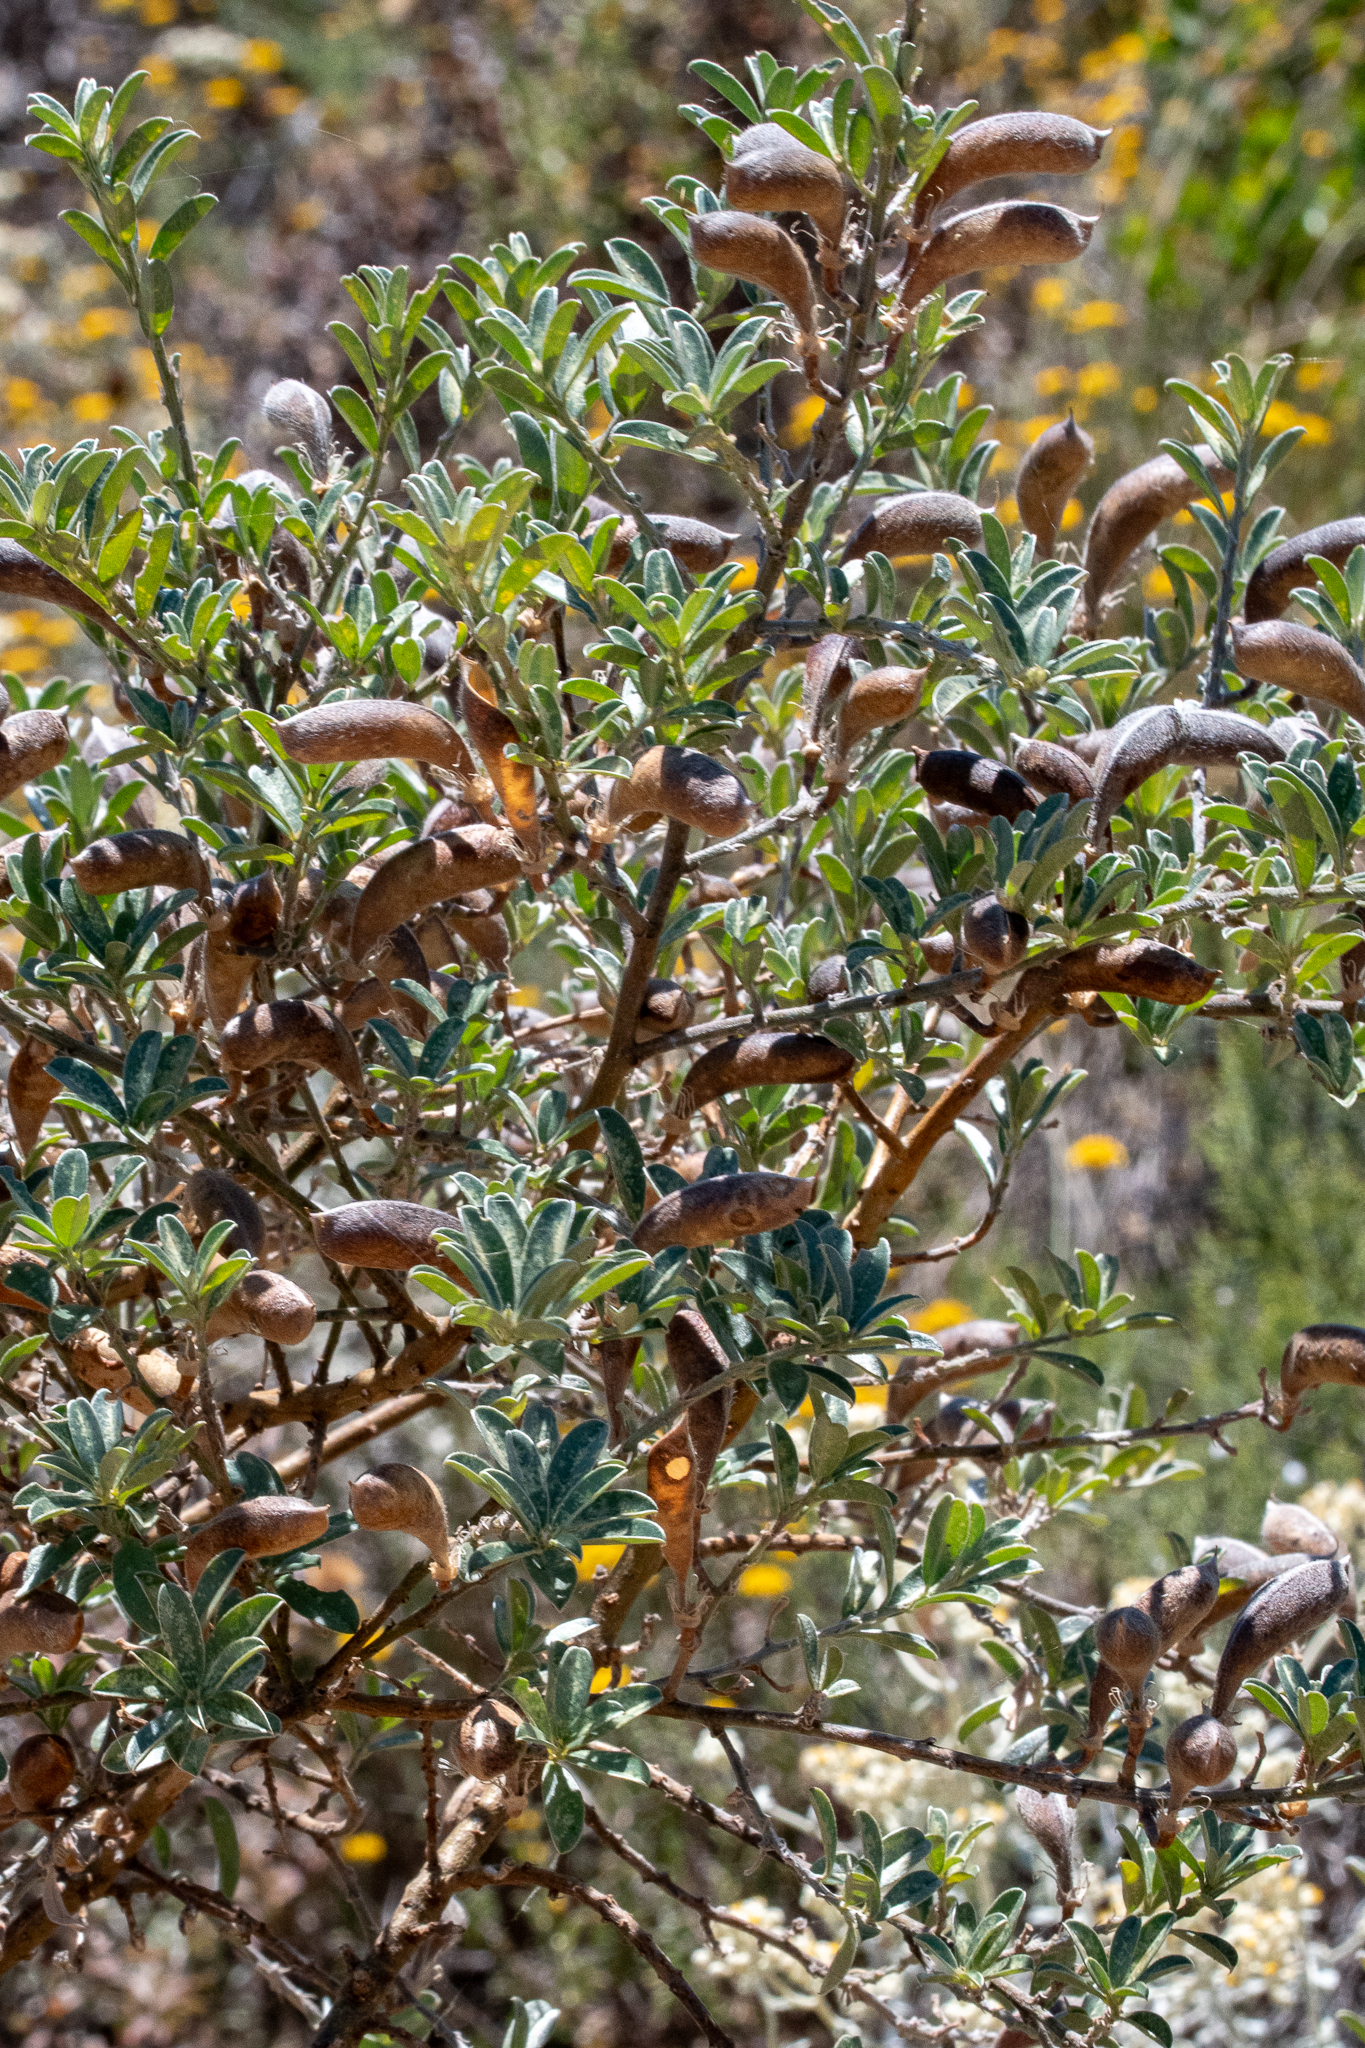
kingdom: Plantae
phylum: Tracheophyta
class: Magnoliopsida
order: Fabales
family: Fabaceae
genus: Podalyria
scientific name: Podalyria myrtillifolia
